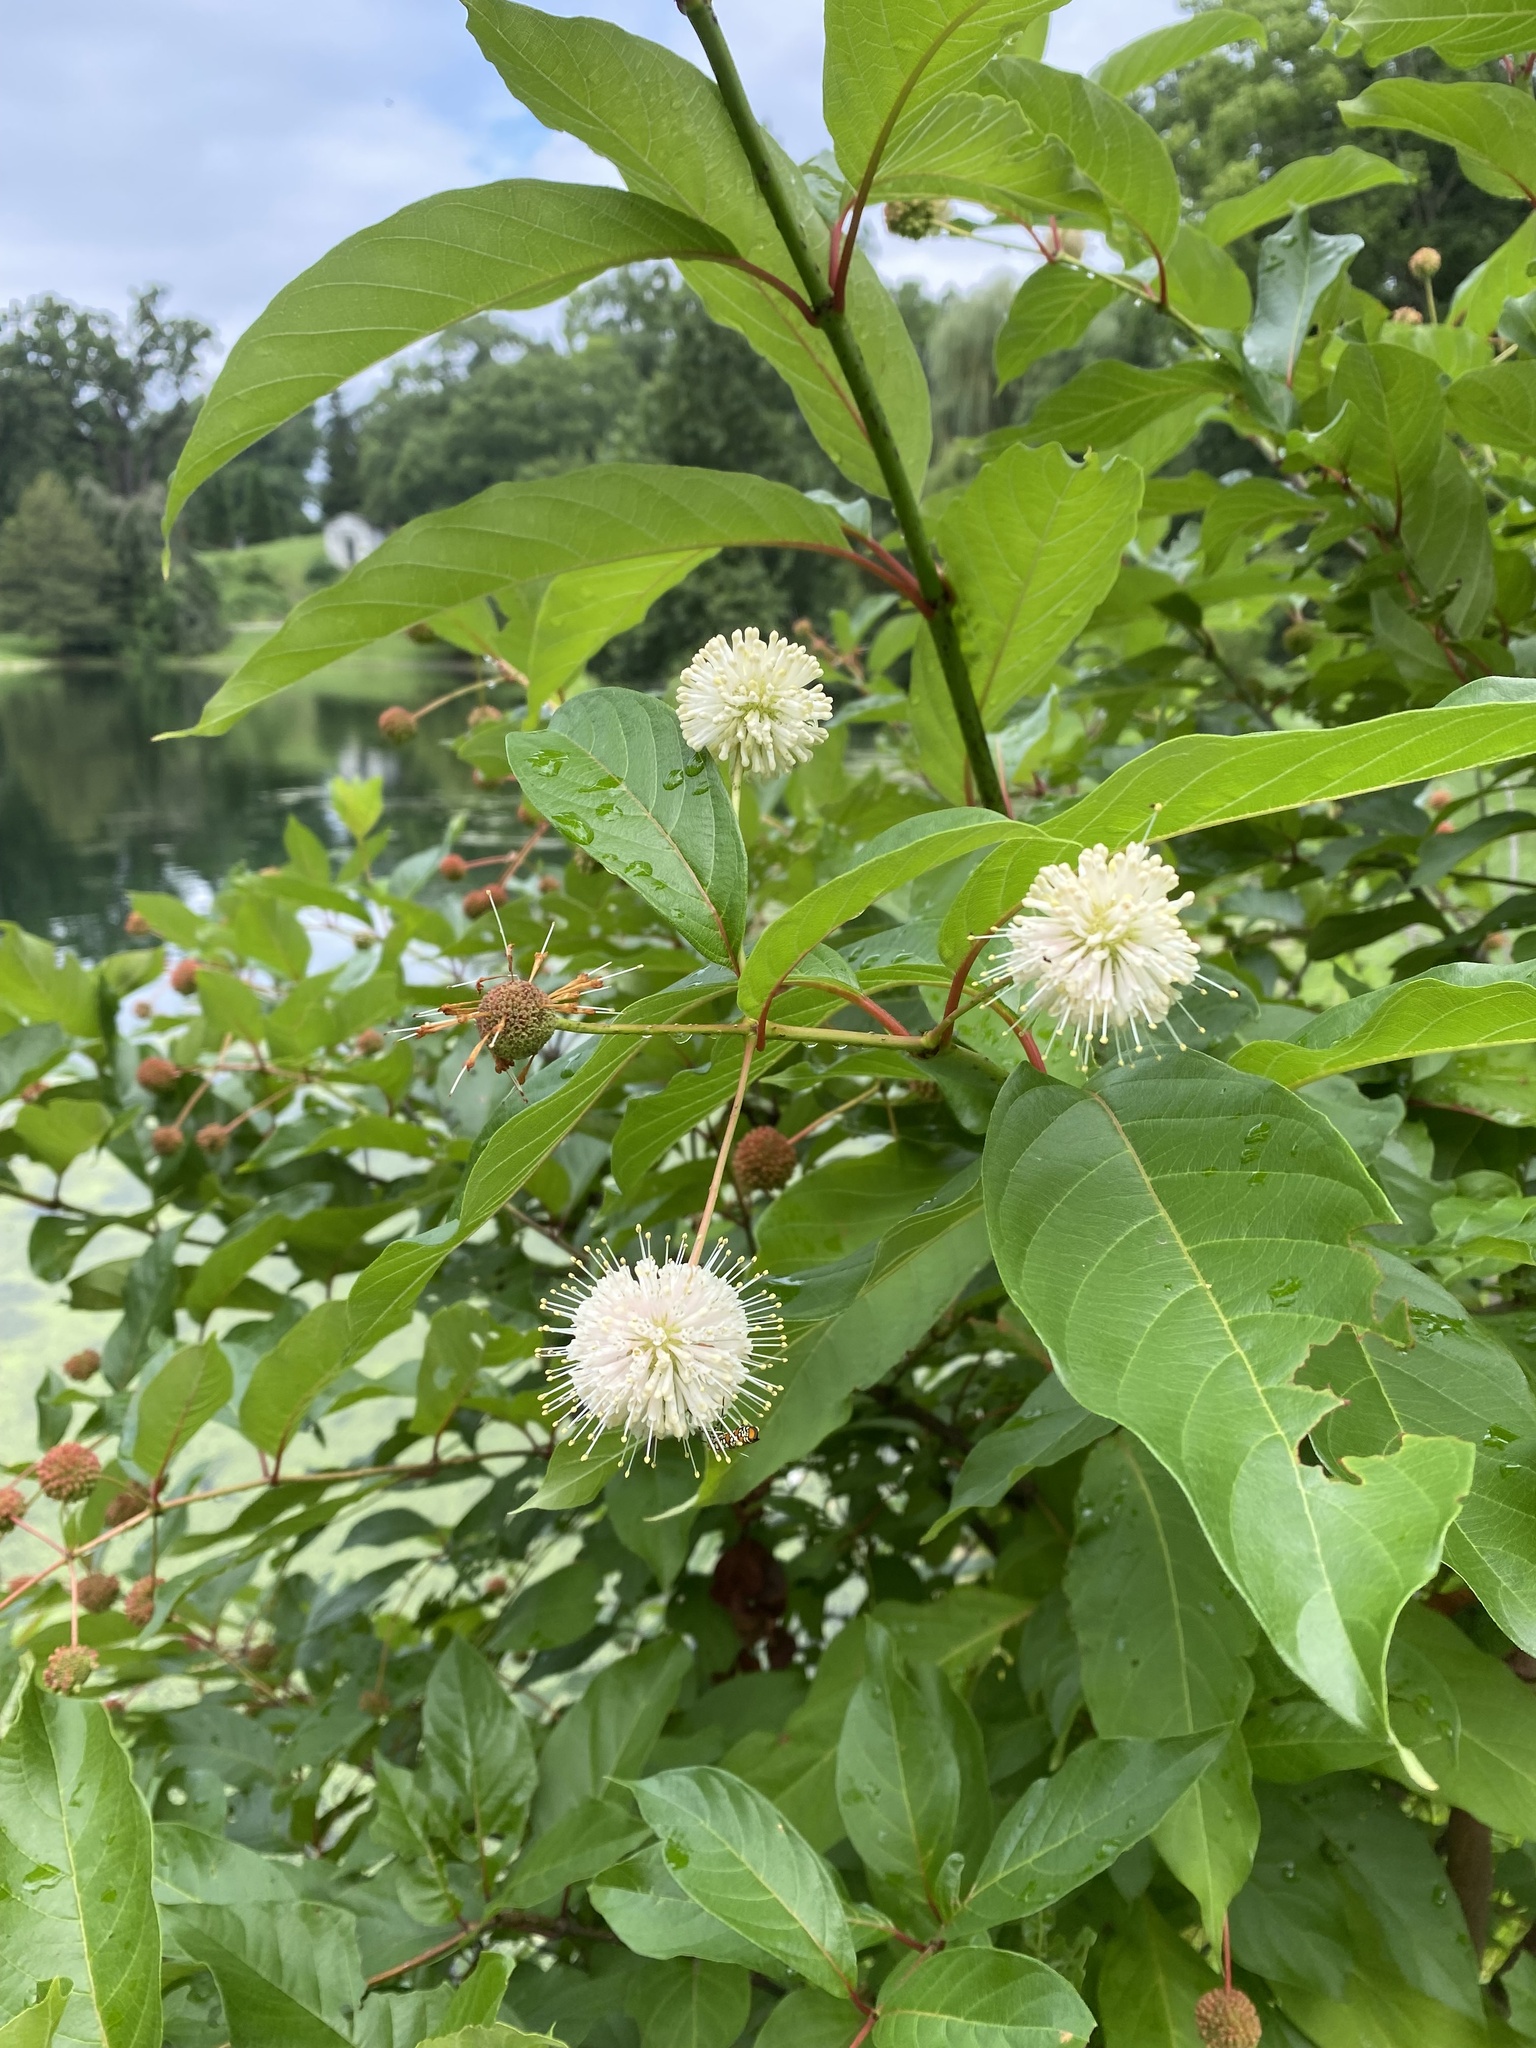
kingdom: Plantae
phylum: Tracheophyta
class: Magnoliopsida
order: Gentianales
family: Rubiaceae
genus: Cephalanthus
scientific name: Cephalanthus occidentalis
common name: Button-willow
